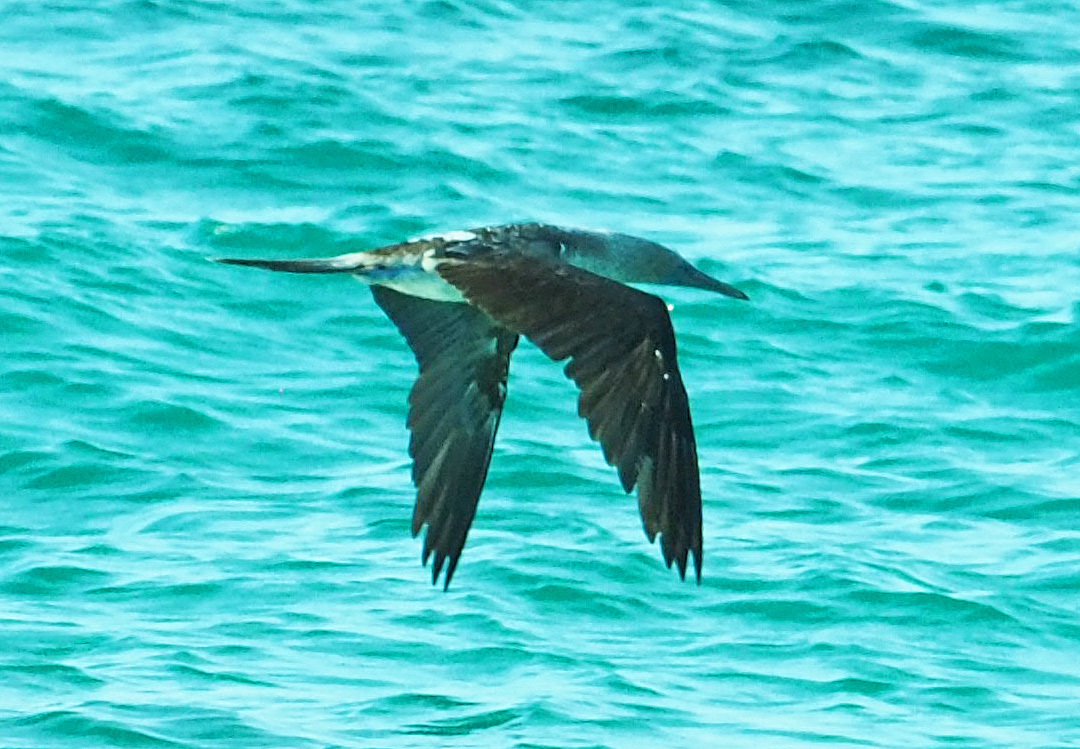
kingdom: Animalia
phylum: Chordata
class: Aves
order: Suliformes
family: Sulidae
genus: Sula
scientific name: Sula nebouxii
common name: Blue-footed booby
